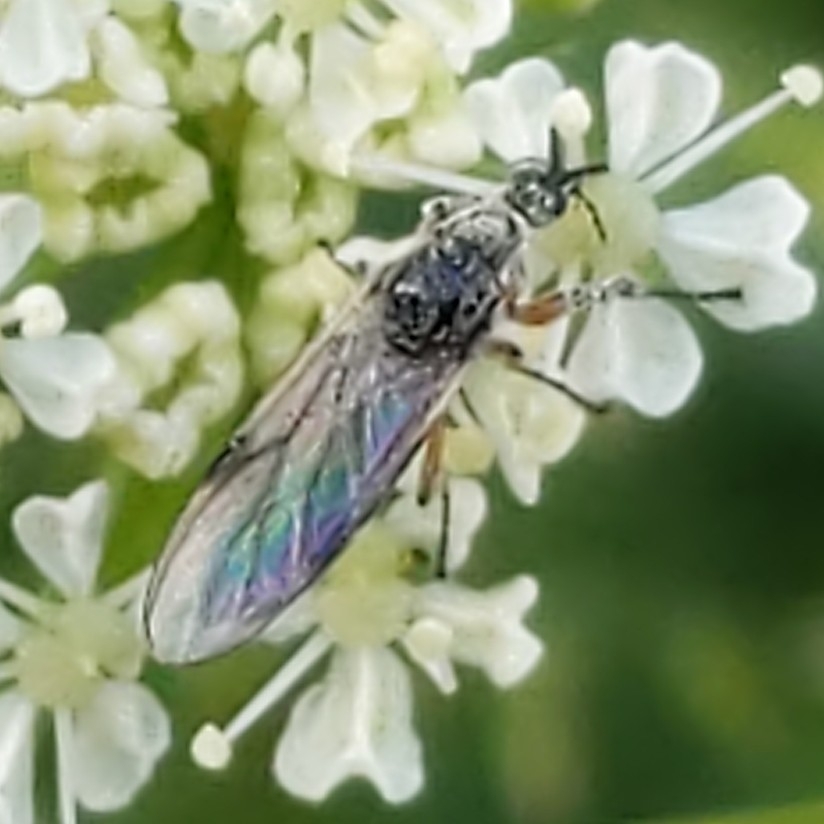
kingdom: Animalia
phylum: Arthropoda
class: Insecta
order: Diptera
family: Bibionidae
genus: Bibio
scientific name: Bibio
